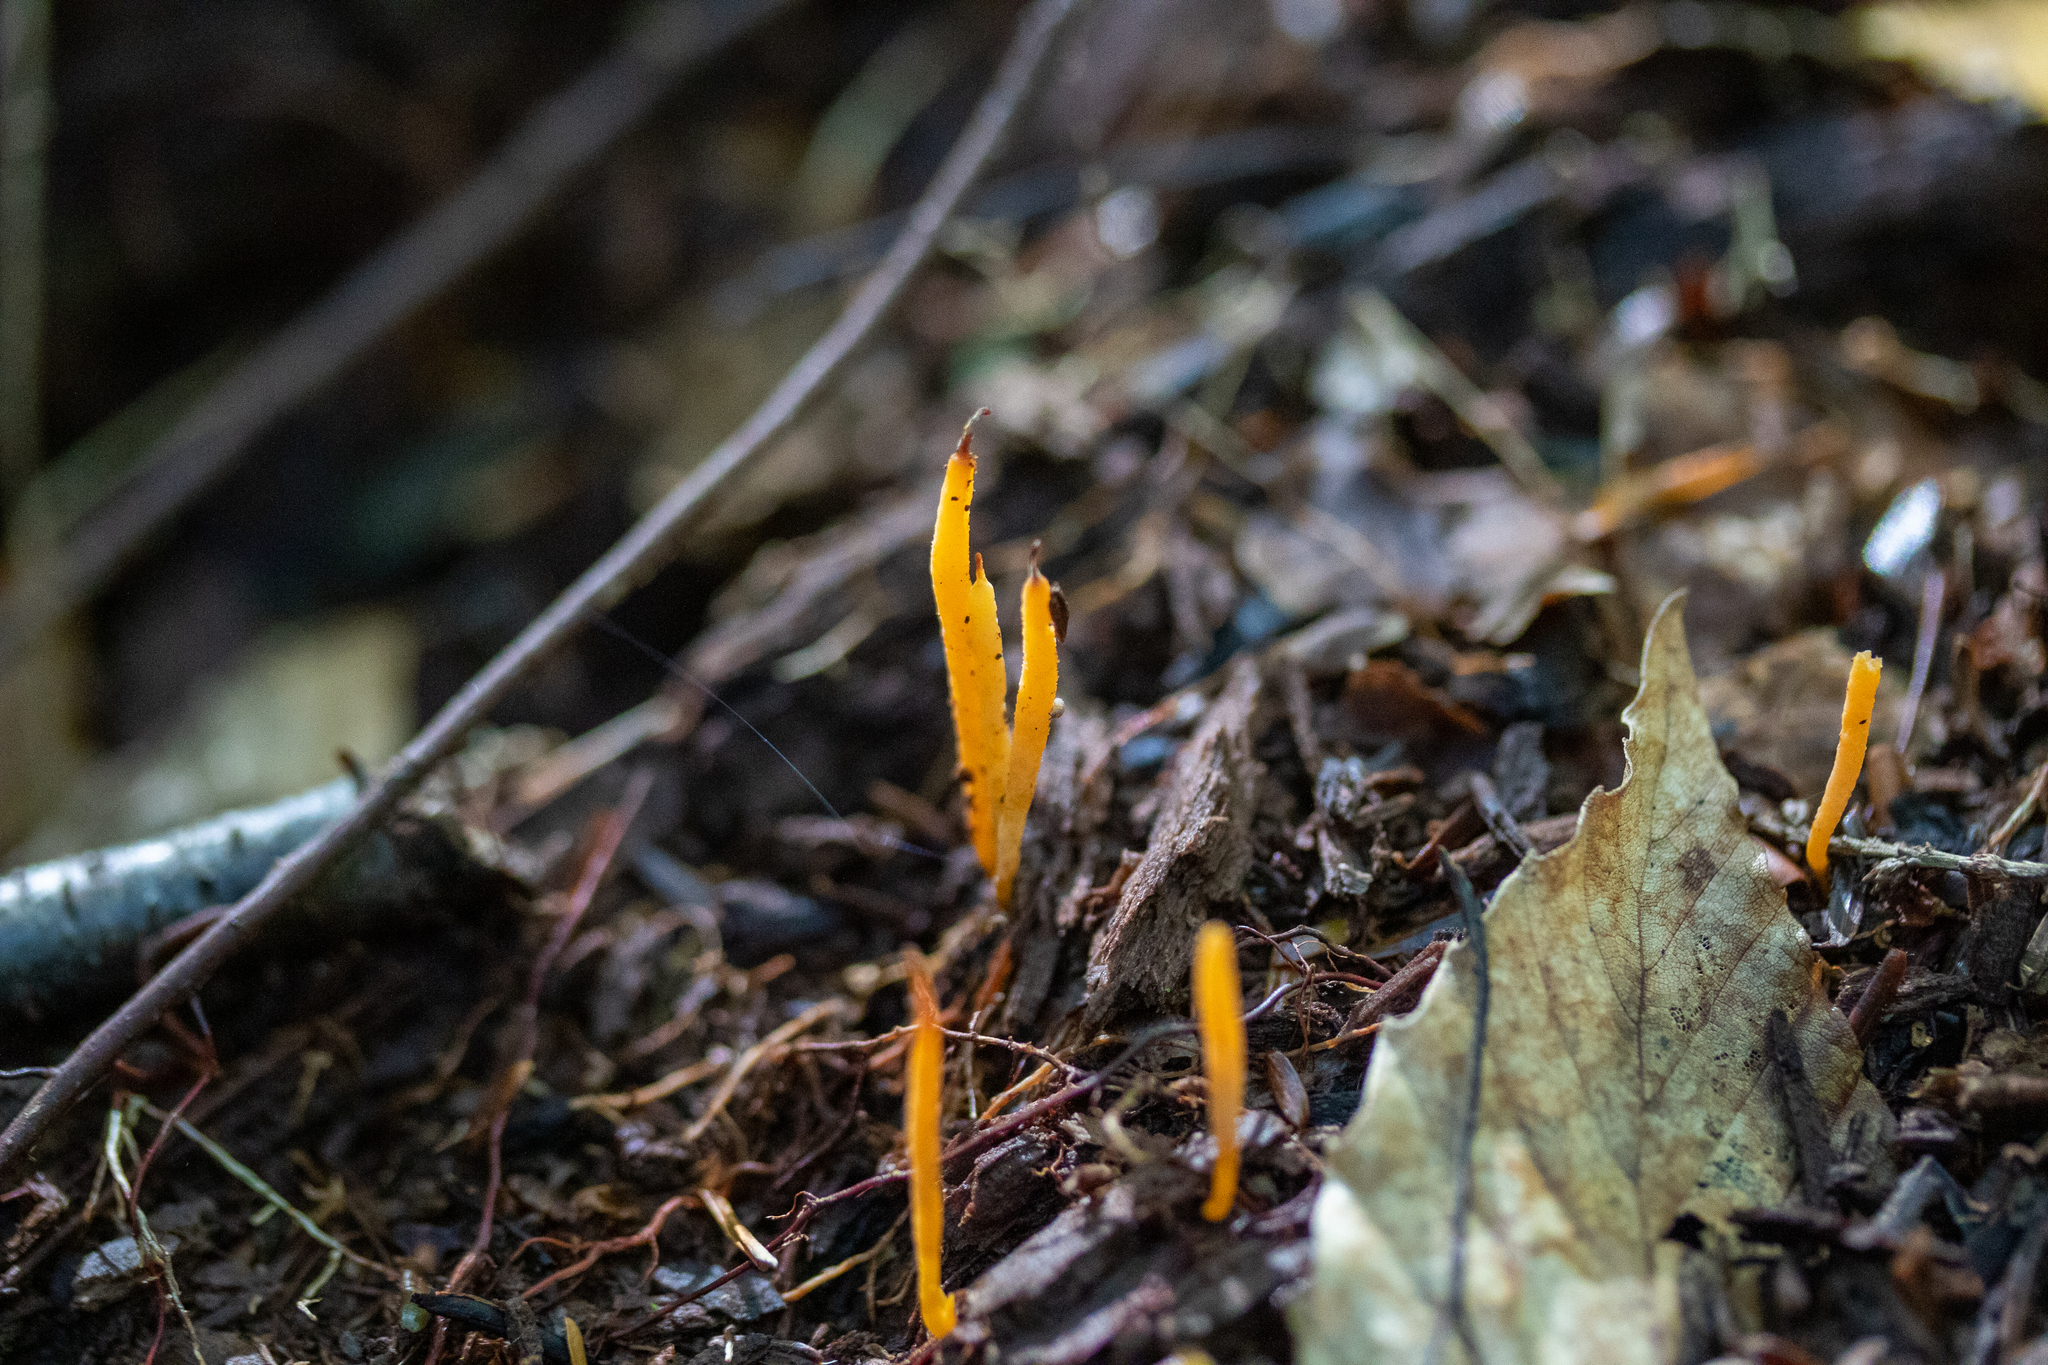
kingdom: Fungi
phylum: Basidiomycota
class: Agaricomycetes
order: Agaricales
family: Clavariaceae
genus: Clavulinopsis
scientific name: Clavulinopsis laeticolor
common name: Handsome club
